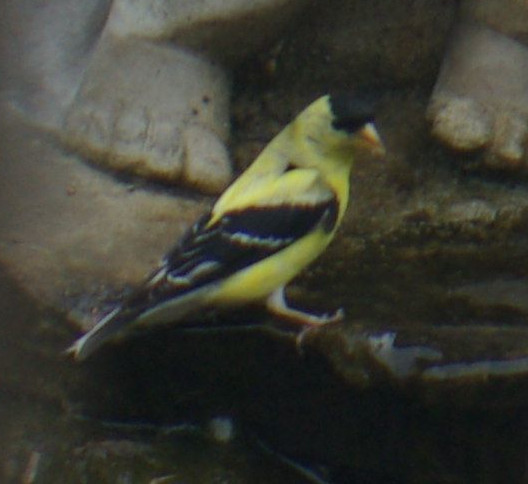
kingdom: Animalia
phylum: Chordata
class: Aves
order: Passeriformes
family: Fringillidae
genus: Spinus
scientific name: Spinus tristis
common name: American goldfinch
